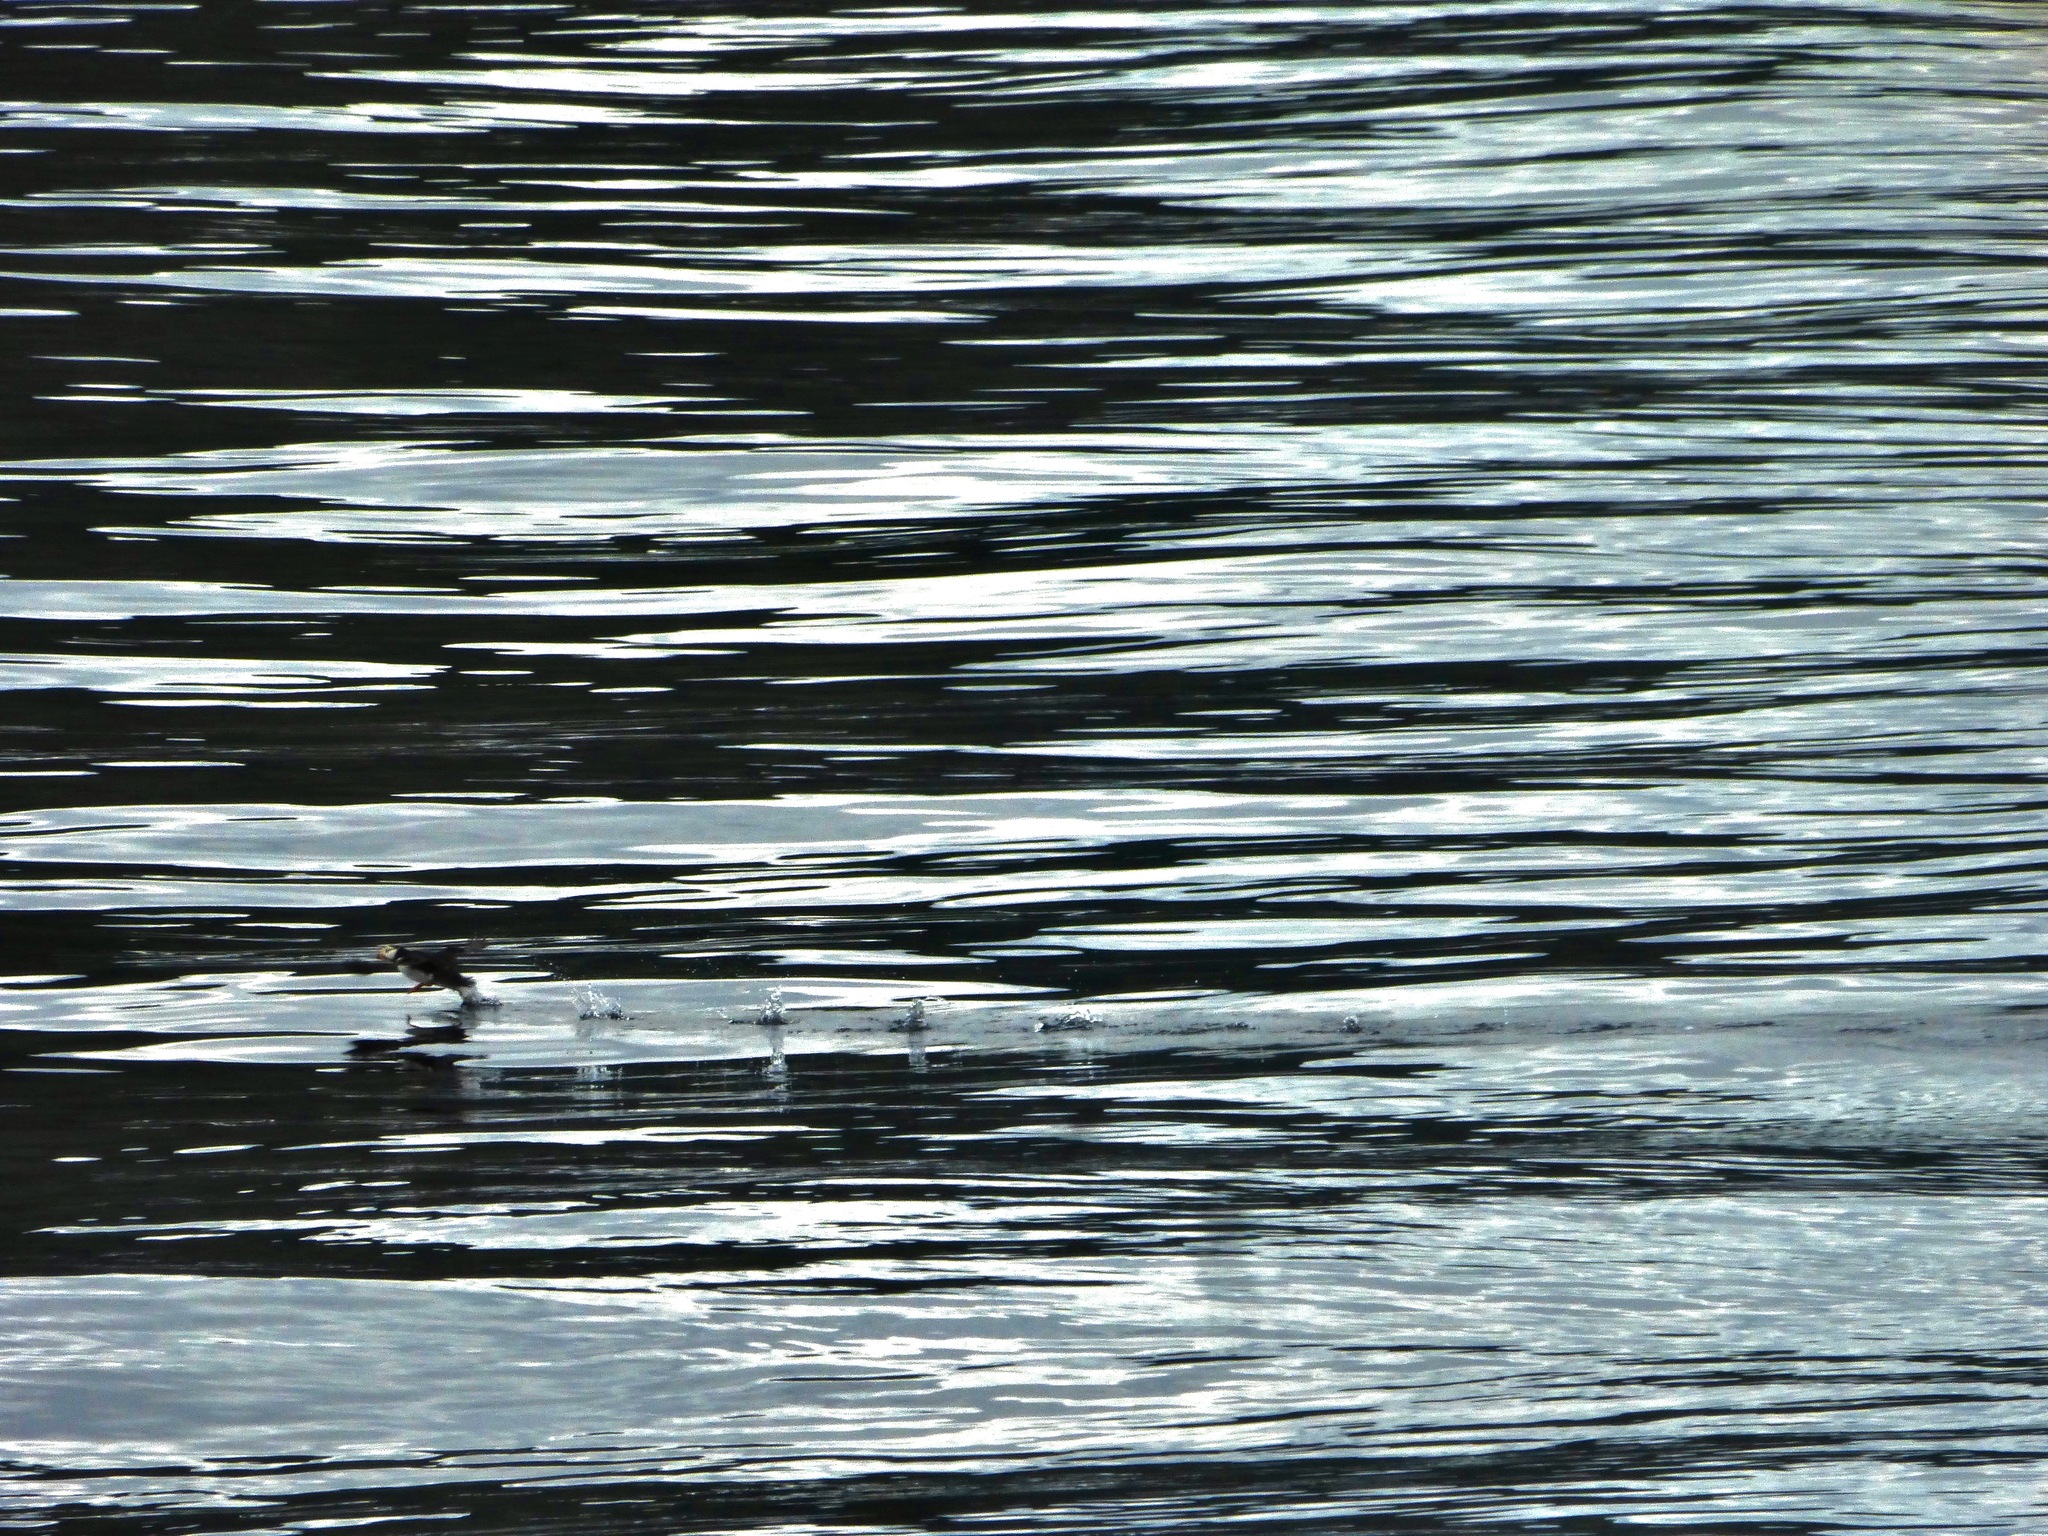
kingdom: Animalia
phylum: Chordata
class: Aves
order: Charadriiformes
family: Alcidae
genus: Fratercula
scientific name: Fratercula corniculata
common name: Horned puffin
